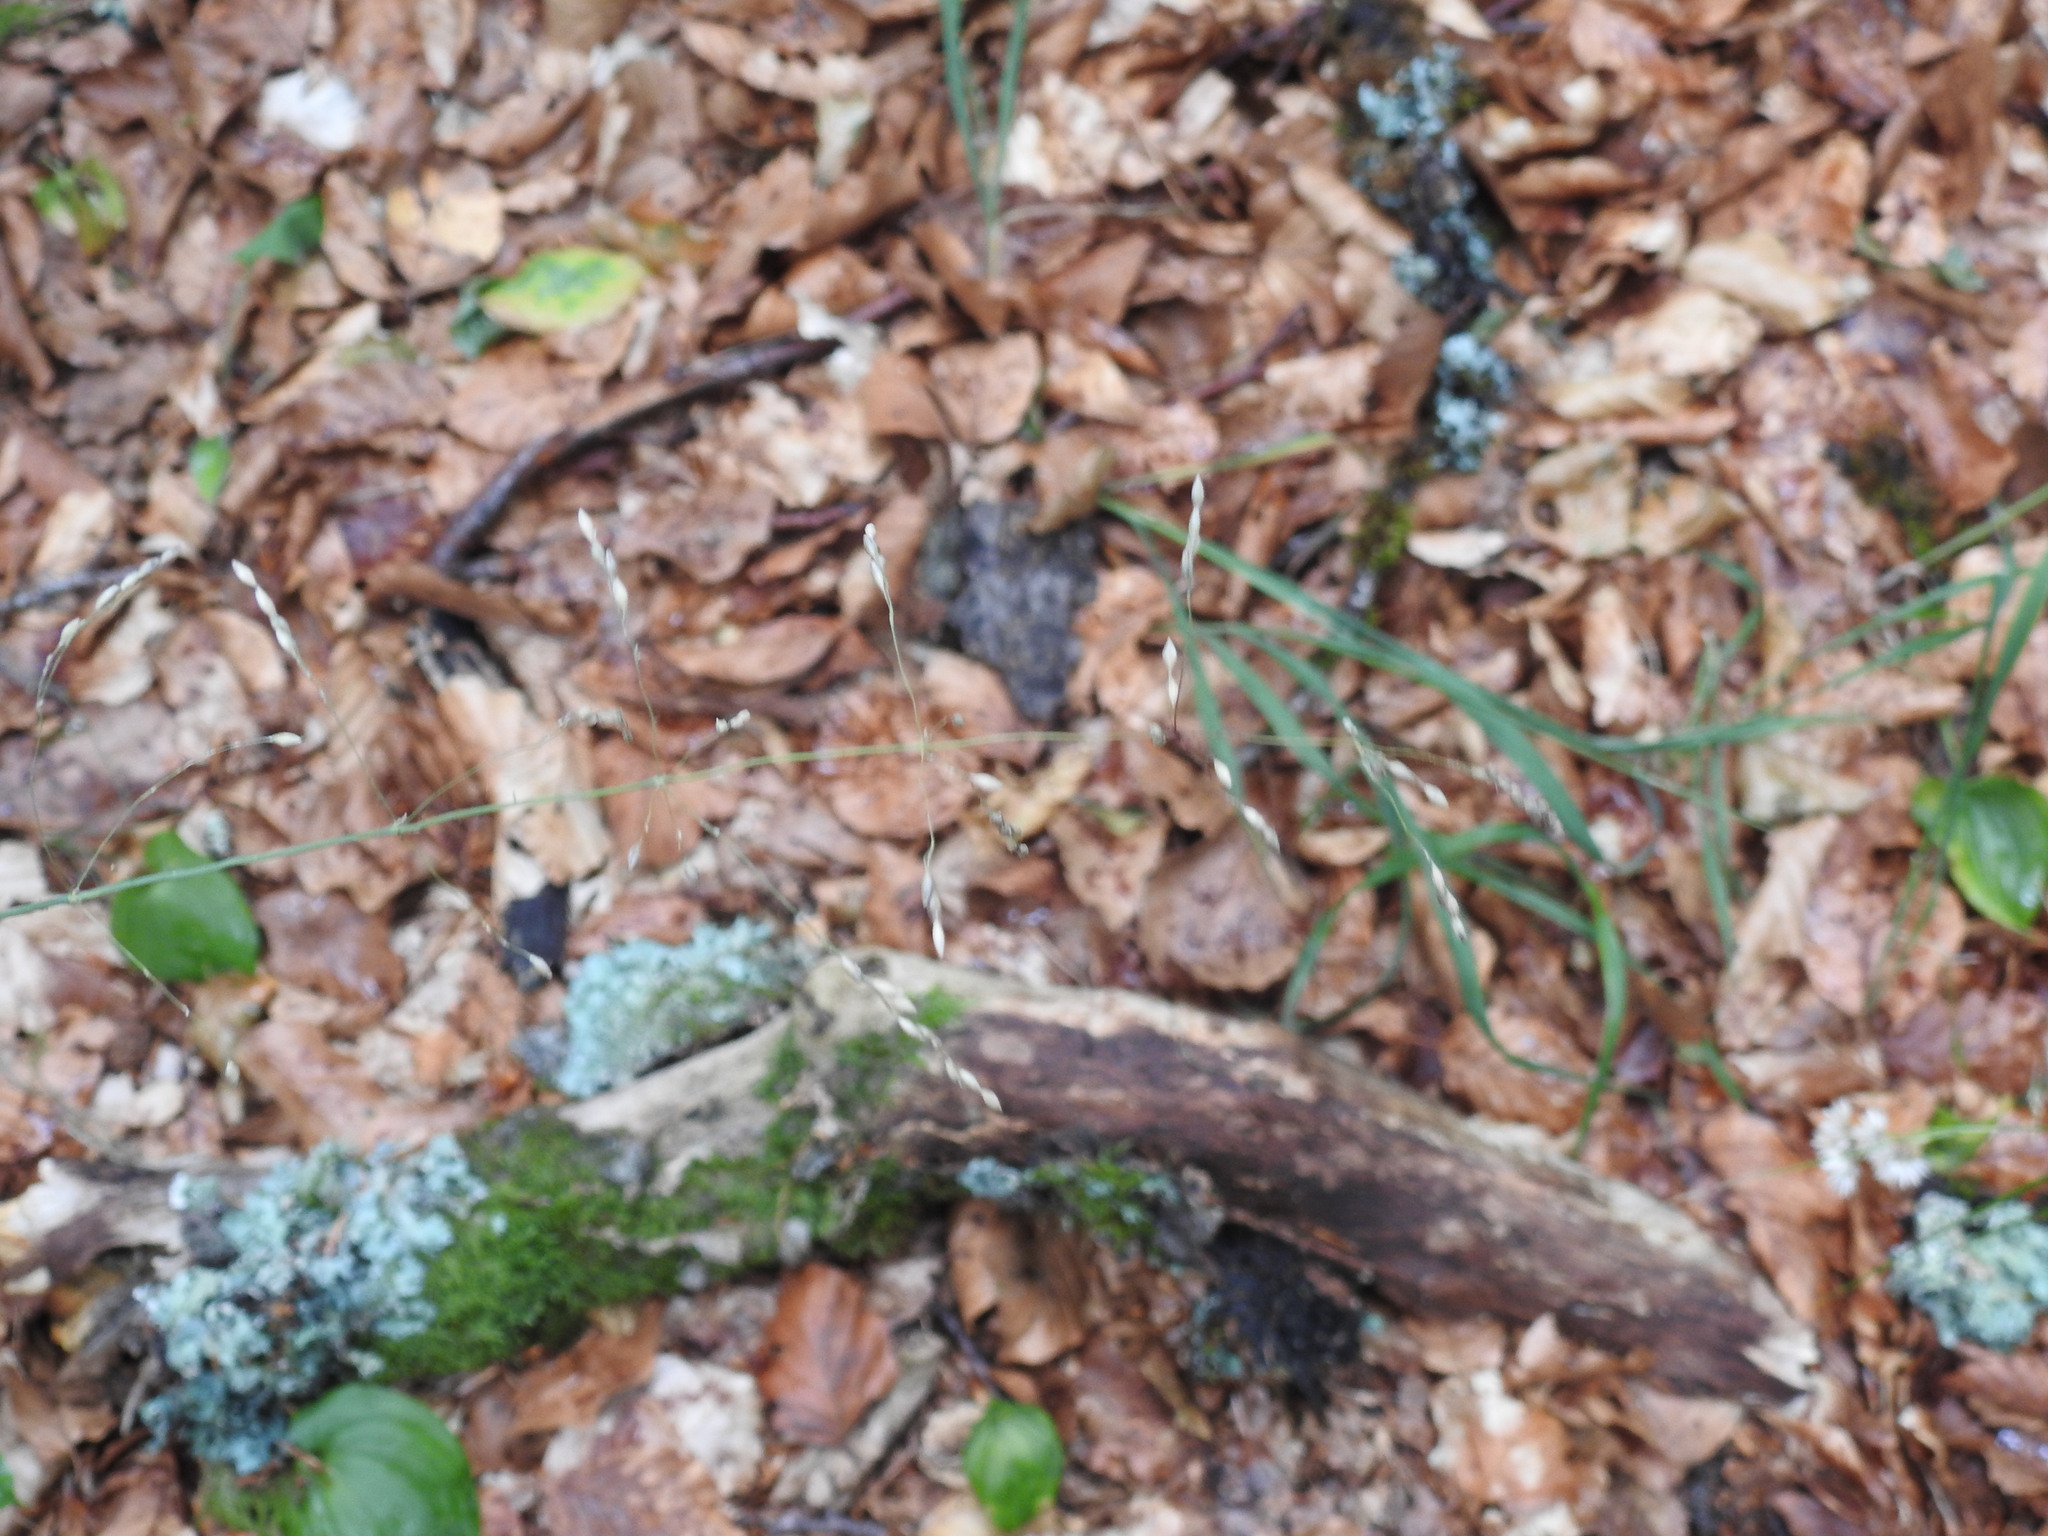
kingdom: Plantae
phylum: Tracheophyta
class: Liliopsida
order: Poales
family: Poaceae
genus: Milium
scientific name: Milium effusum
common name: Wood millet
